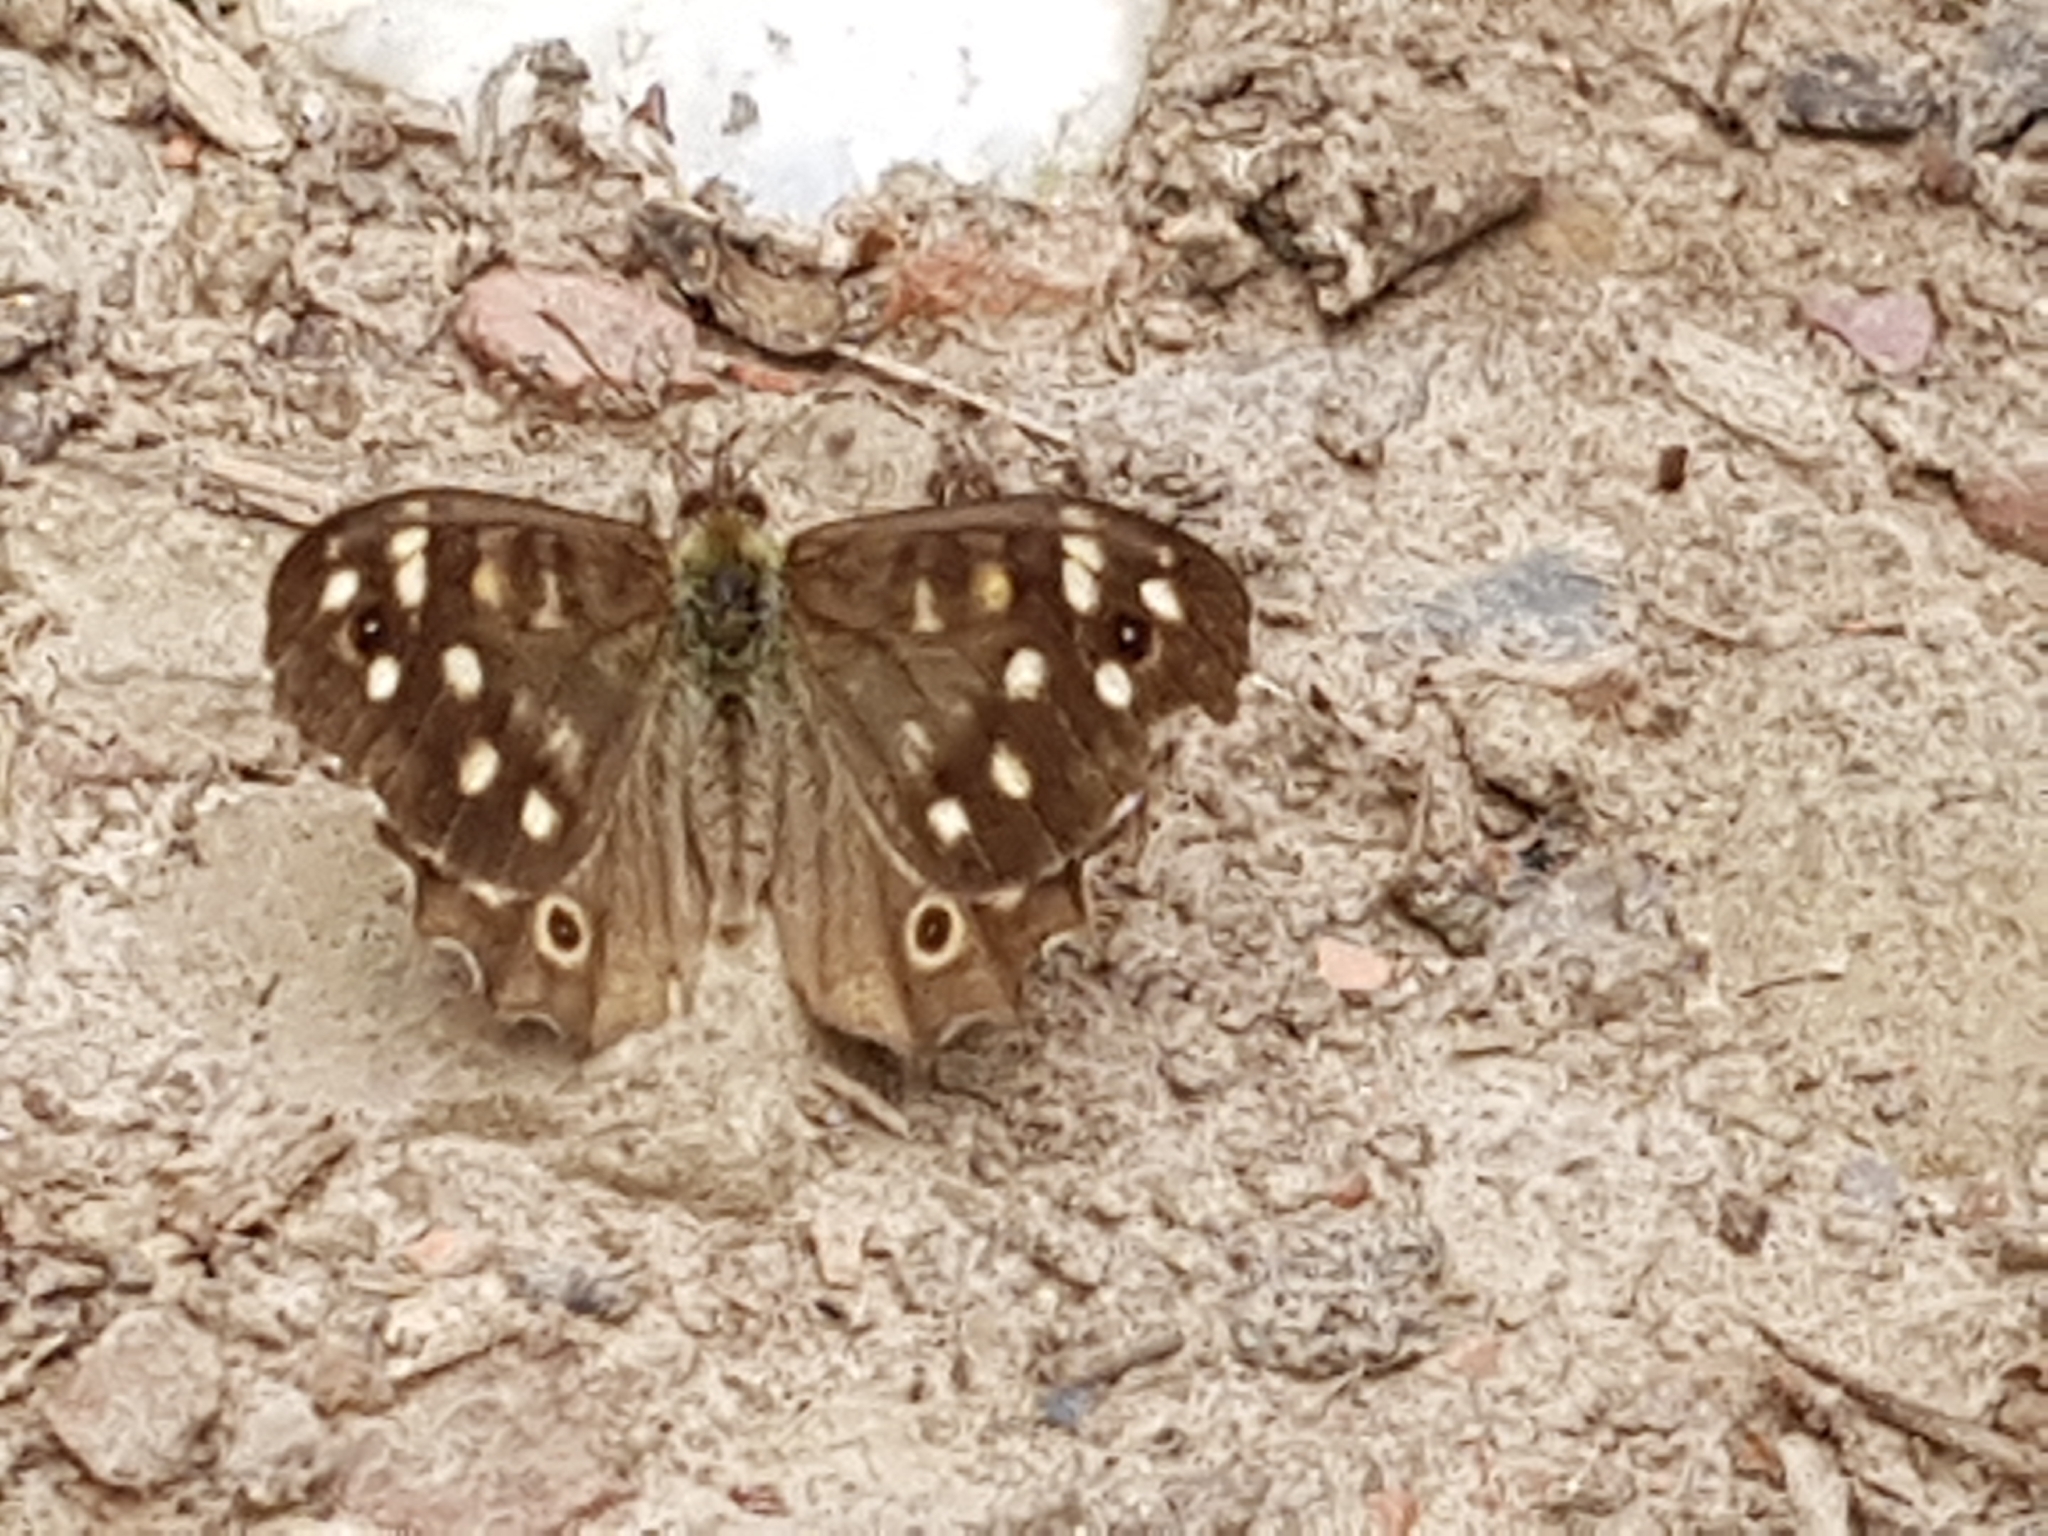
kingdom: Animalia
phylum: Arthropoda
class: Insecta
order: Lepidoptera
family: Nymphalidae
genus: Pararge
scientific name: Pararge aegeria
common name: Speckled wood
